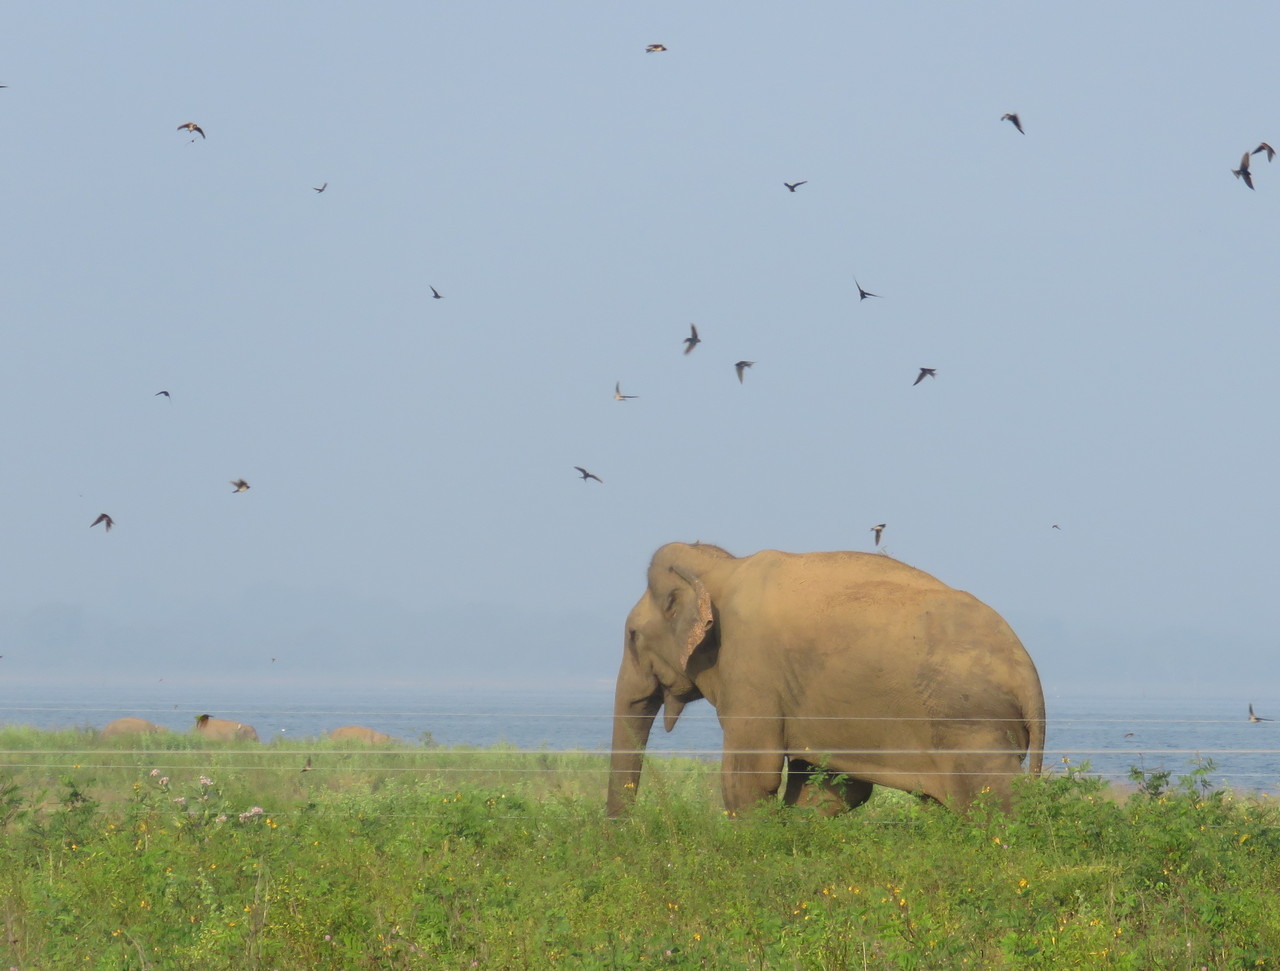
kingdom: Animalia
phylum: Chordata
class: Mammalia
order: Proboscidea
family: Elephantidae
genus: Elephas
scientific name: Elephas maximus
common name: Asian elephant
